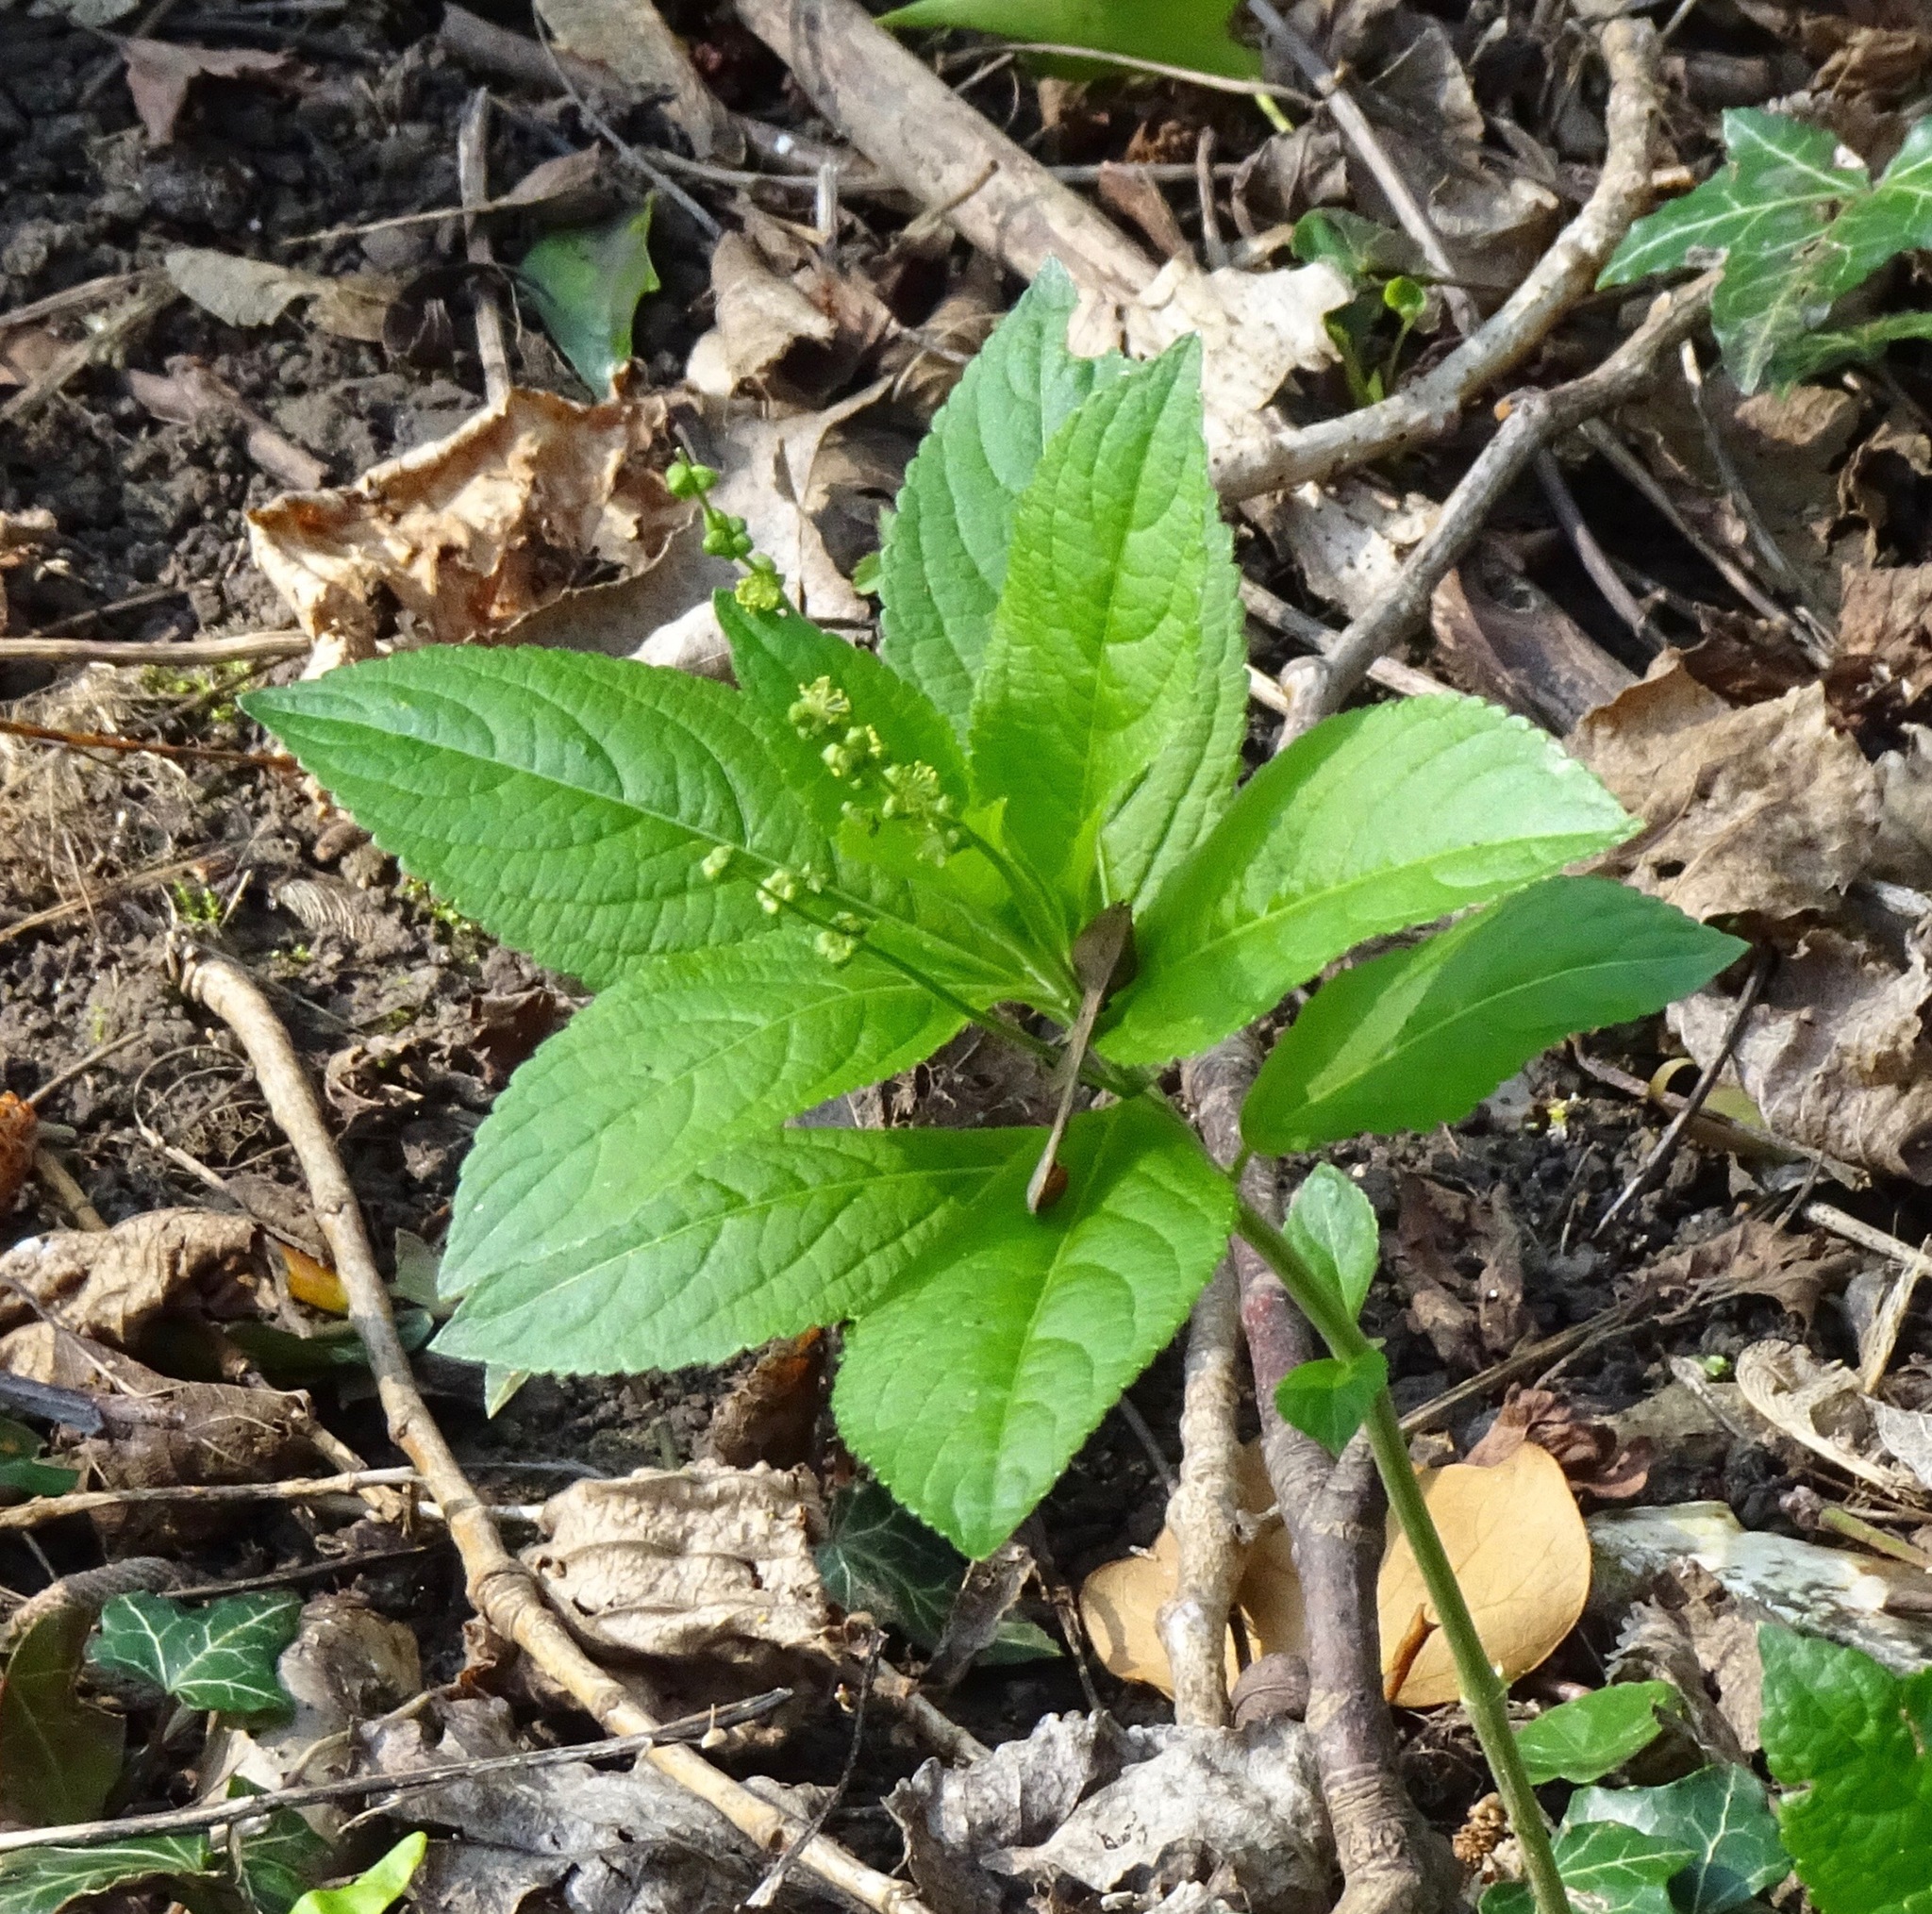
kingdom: Plantae
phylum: Tracheophyta
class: Magnoliopsida
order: Malpighiales
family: Euphorbiaceae
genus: Mercurialis
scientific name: Mercurialis perennis
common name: Dog mercury
